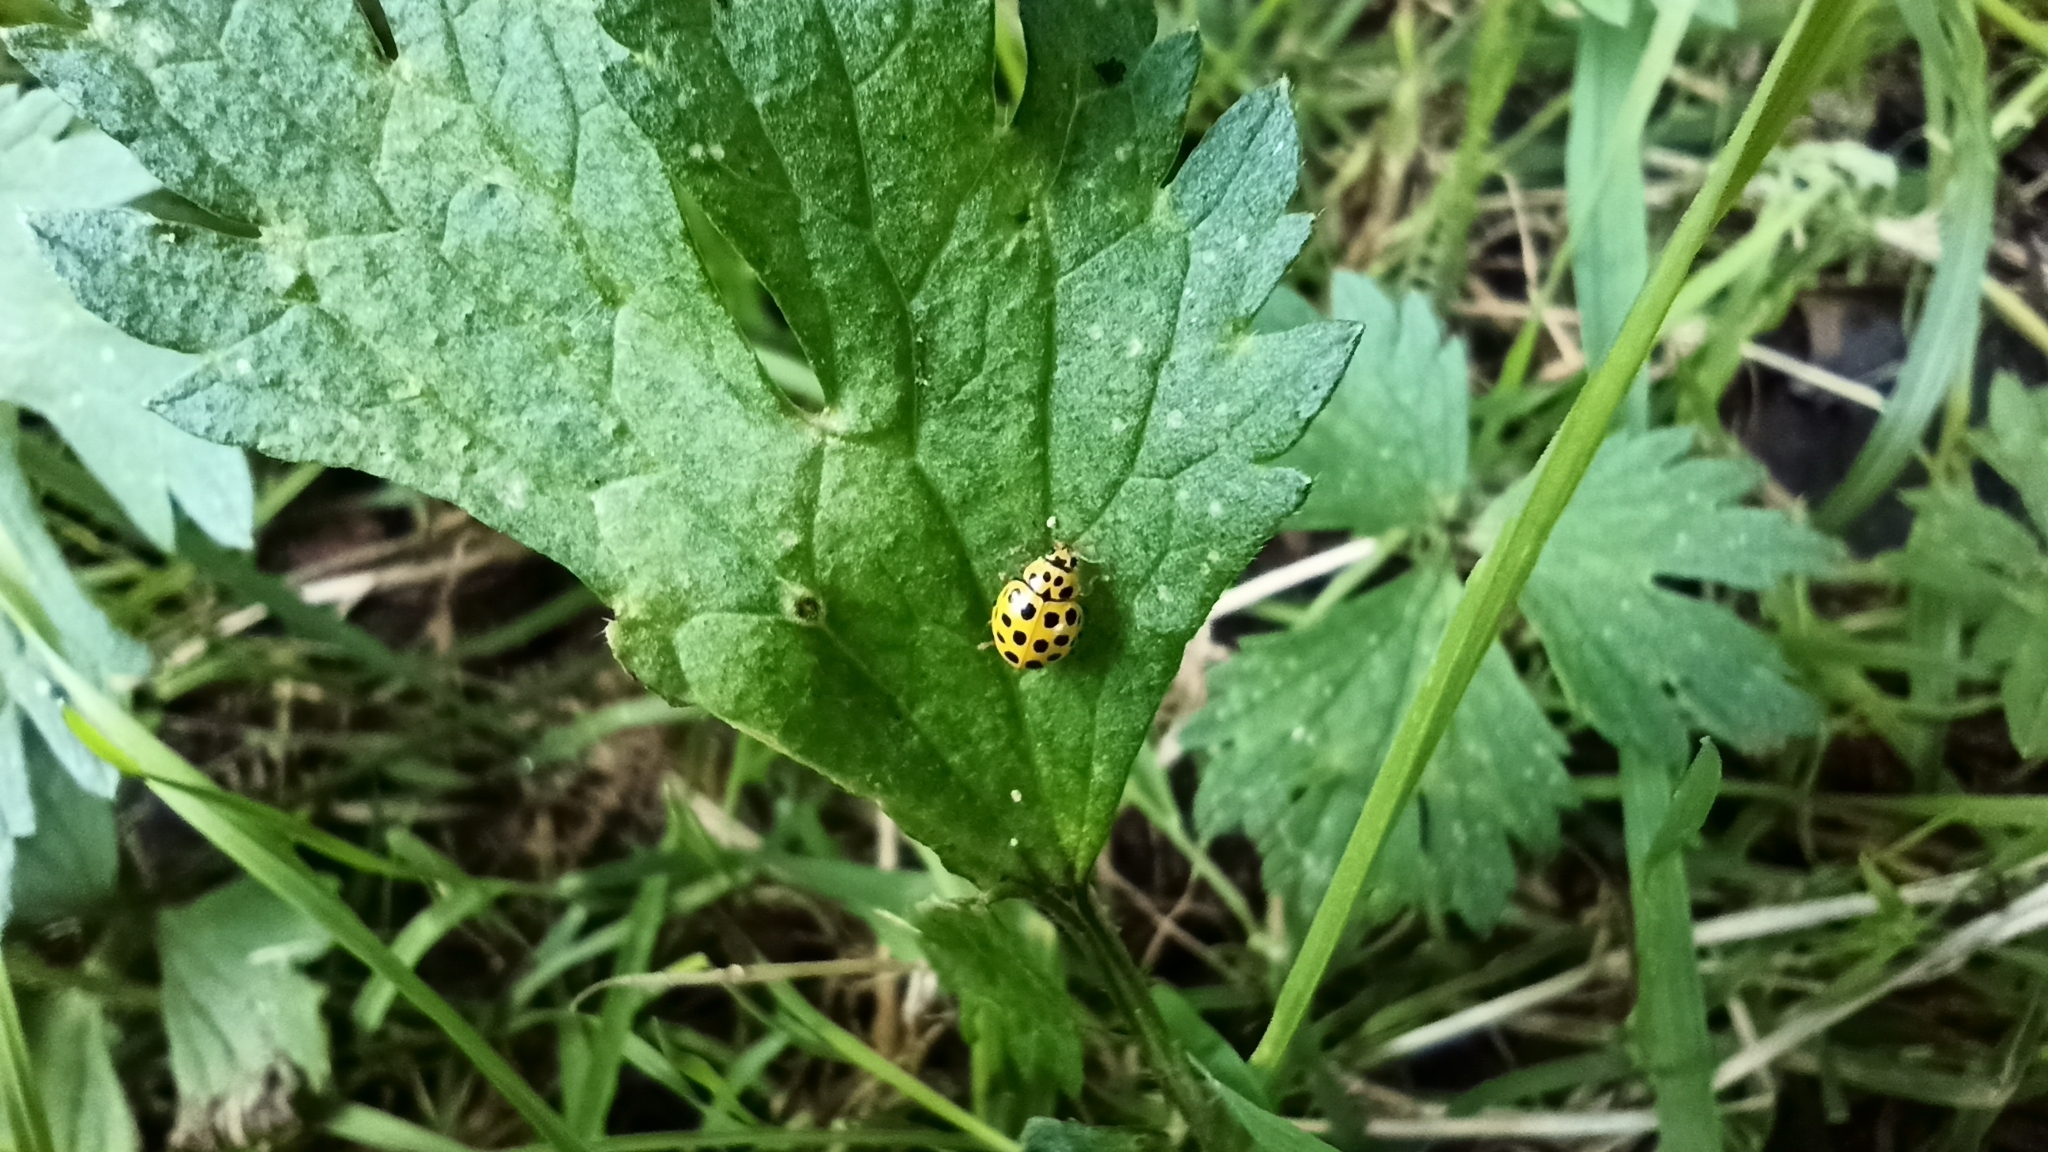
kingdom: Animalia
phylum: Arthropoda
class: Insecta
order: Coleoptera
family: Coccinellidae
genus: Psyllobora
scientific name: Psyllobora vigintiduopunctata
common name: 22-spot ladybird
